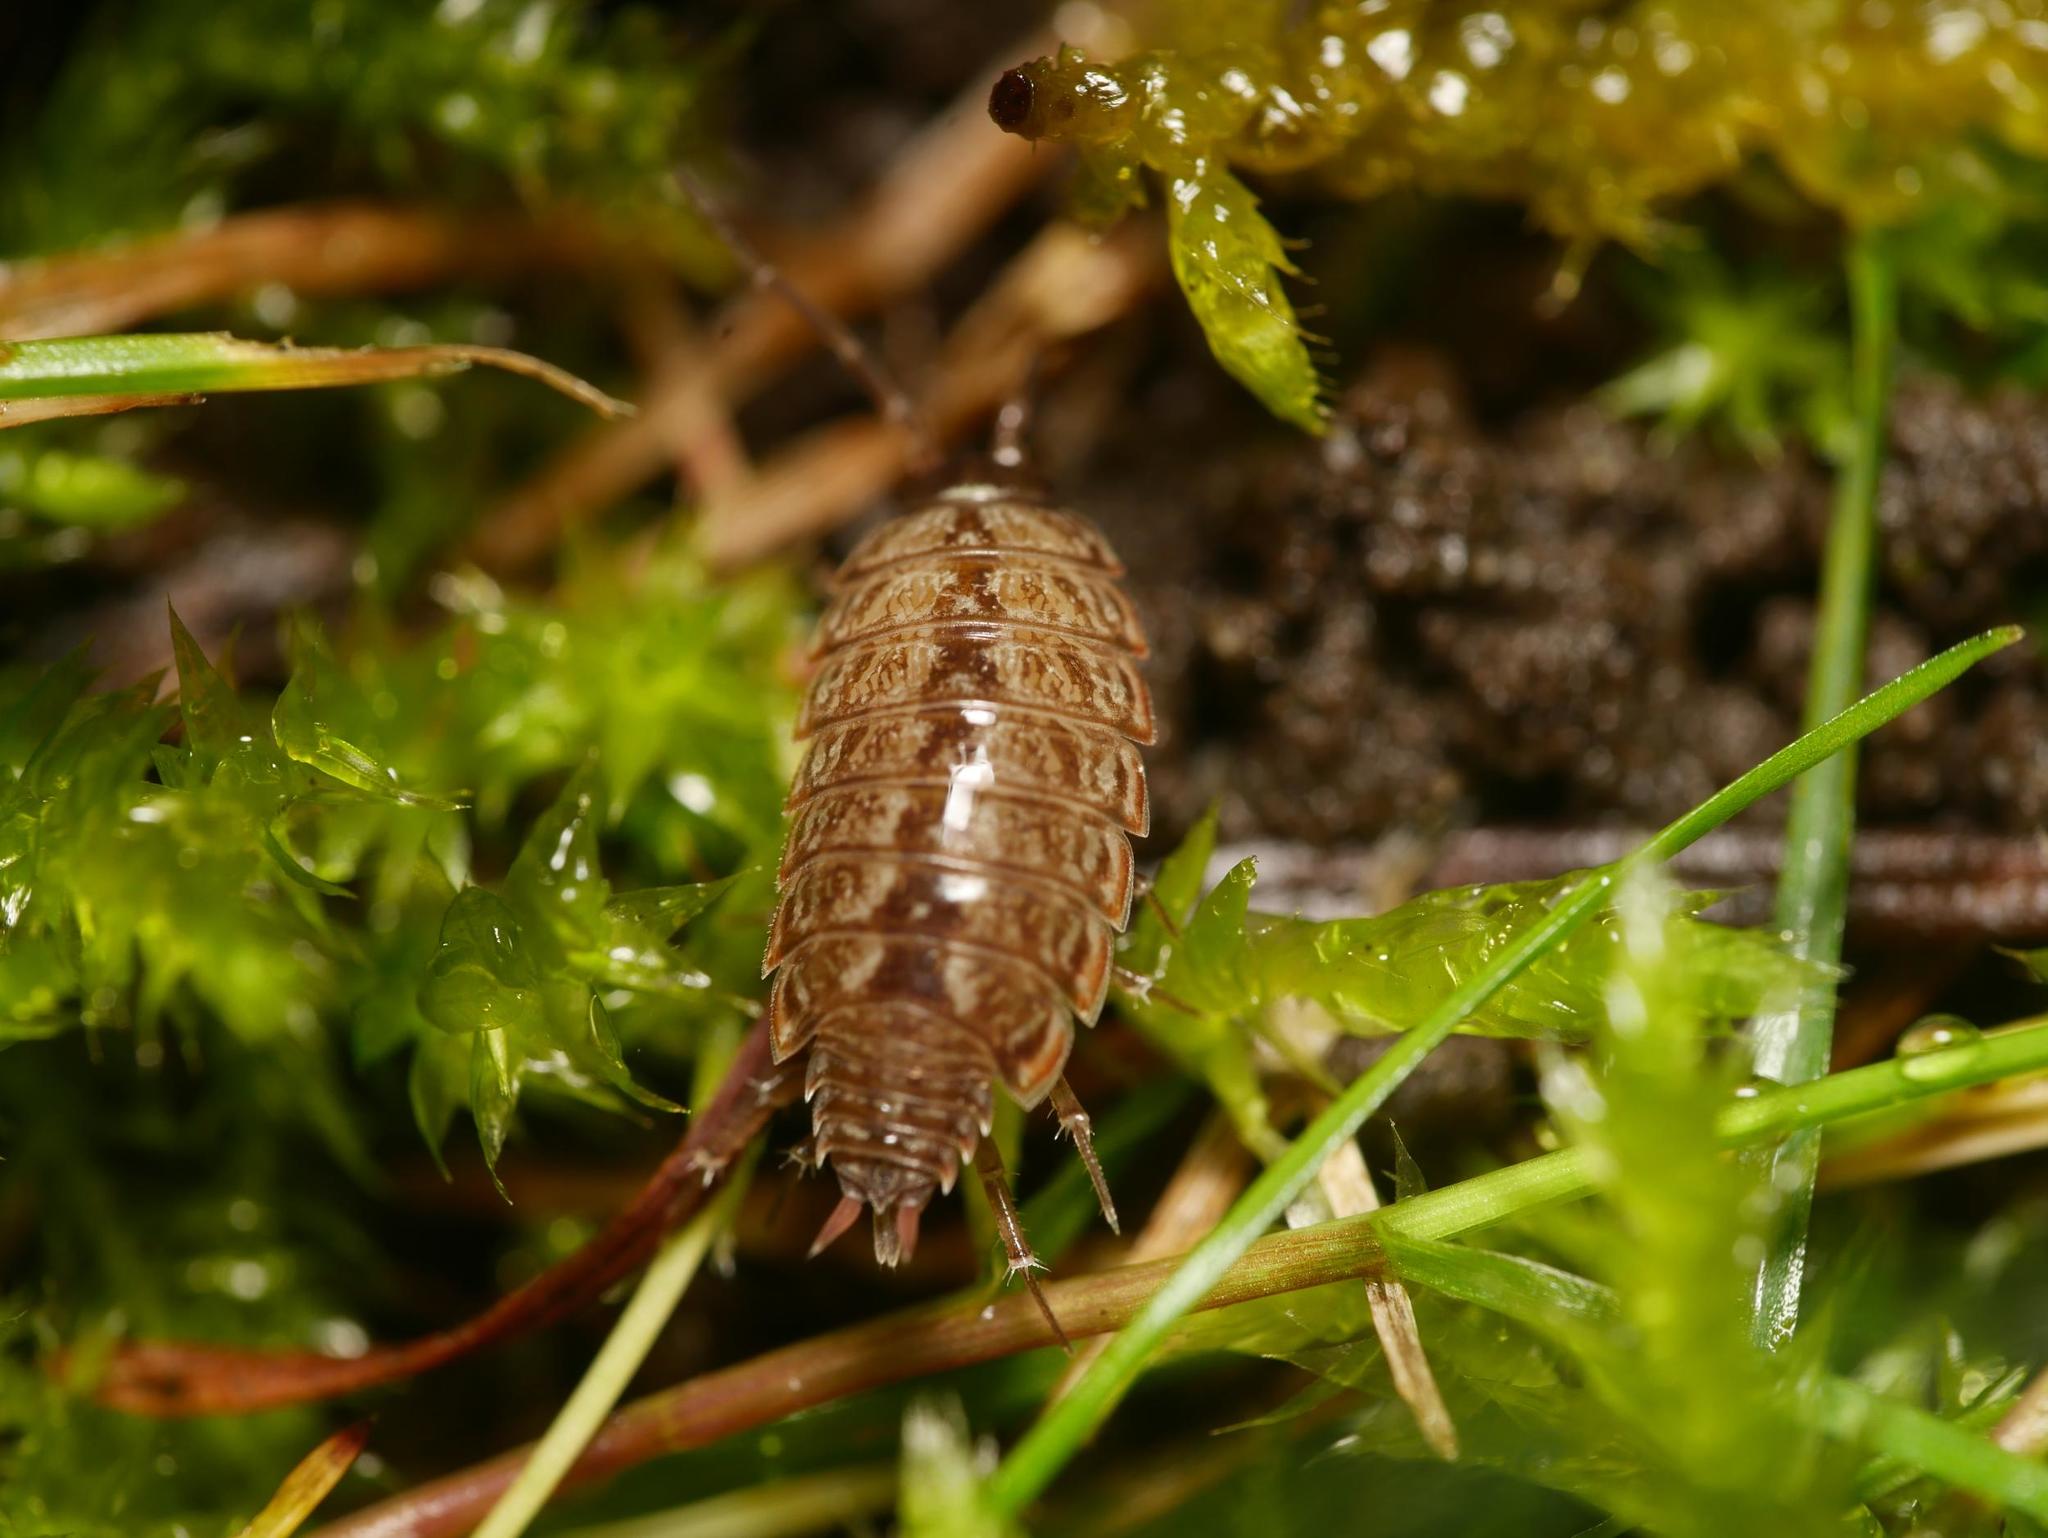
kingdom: Animalia
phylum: Arthropoda
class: Malacostraca
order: Isopoda
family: Philosciidae
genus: Philoscia
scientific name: Philoscia muscorum
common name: Common striped woodlouse
